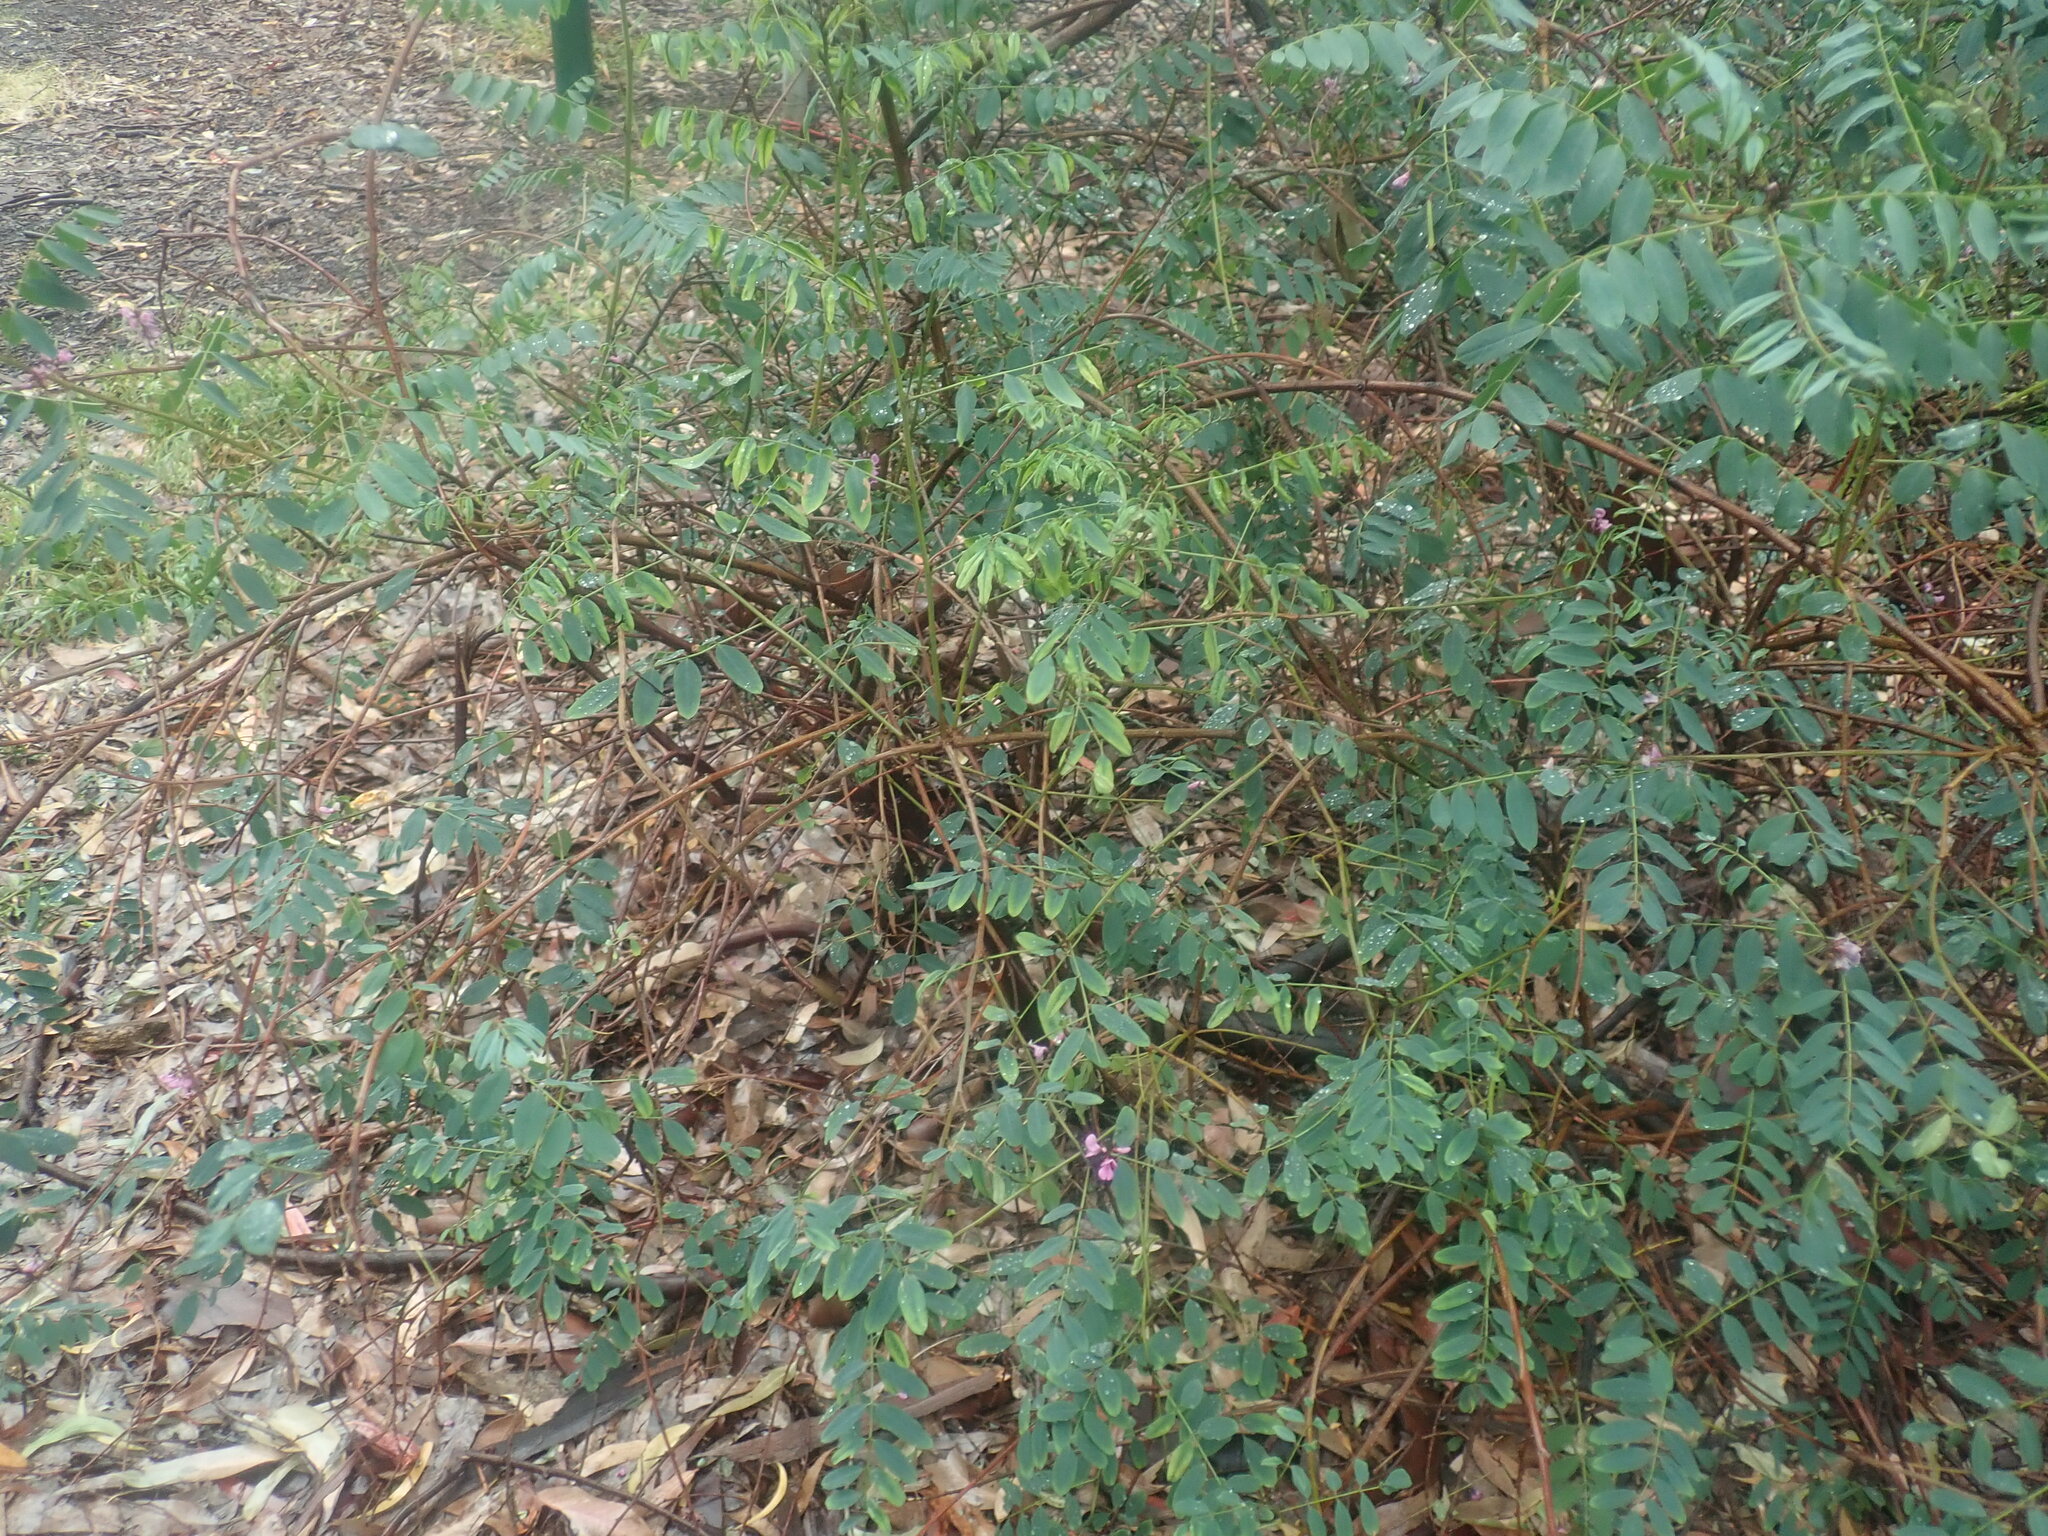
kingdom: Plantae
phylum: Tracheophyta
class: Magnoliopsida
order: Fabales
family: Fabaceae
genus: Indigofera
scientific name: Indigofera australis
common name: Australian indigo
